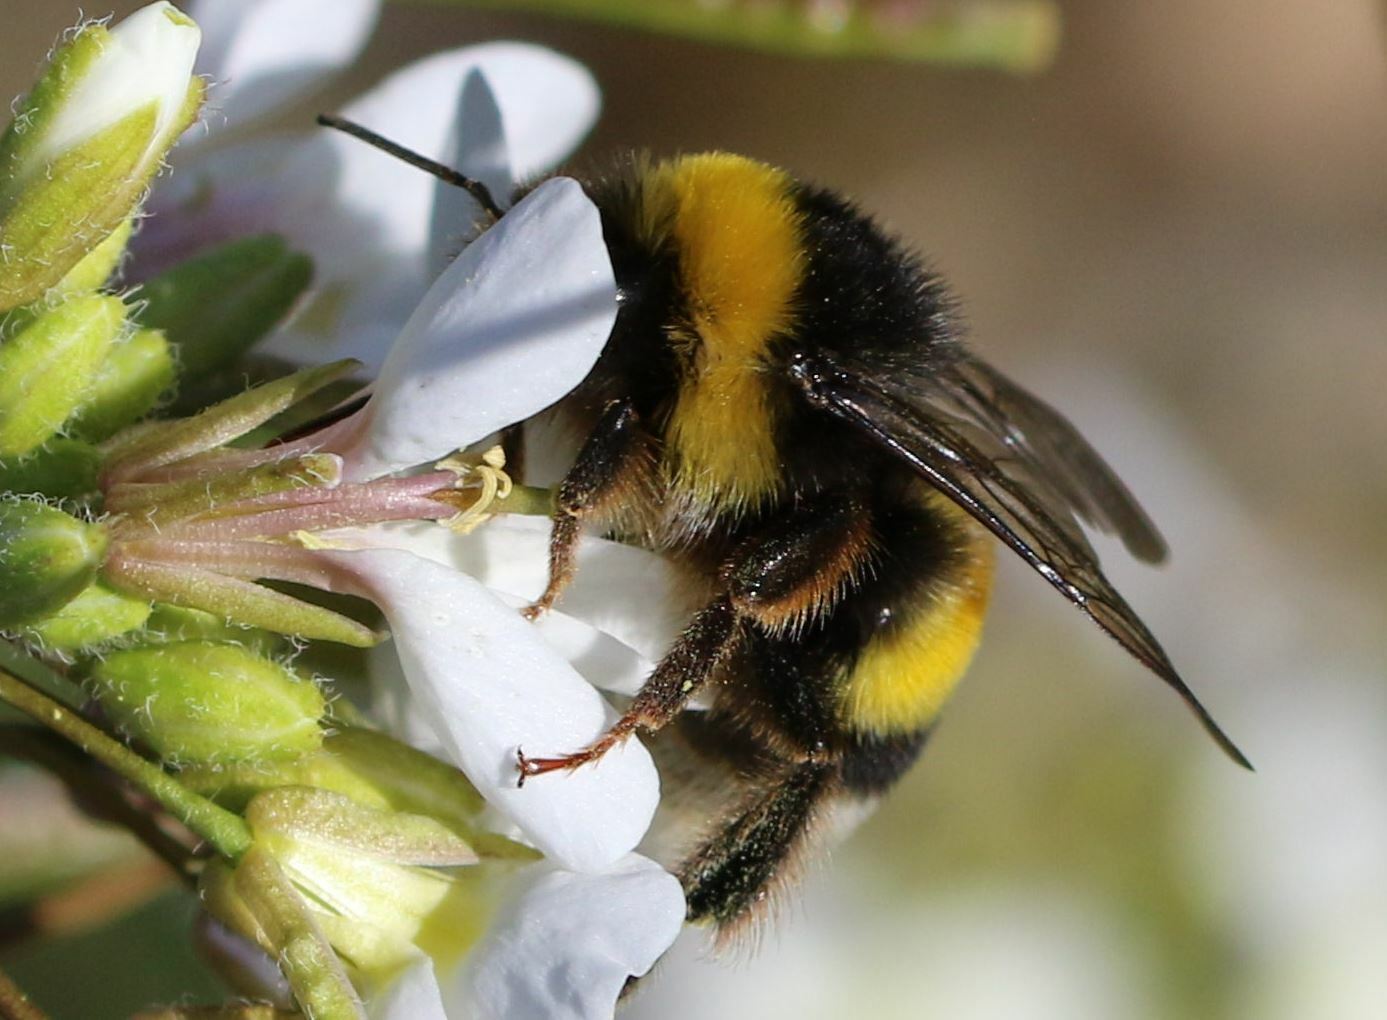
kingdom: Animalia
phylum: Arthropoda
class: Insecta
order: Hymenoptera
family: Apidae
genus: Bombus
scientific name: Bombus terrestris
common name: Buff-tailed bumblebee
